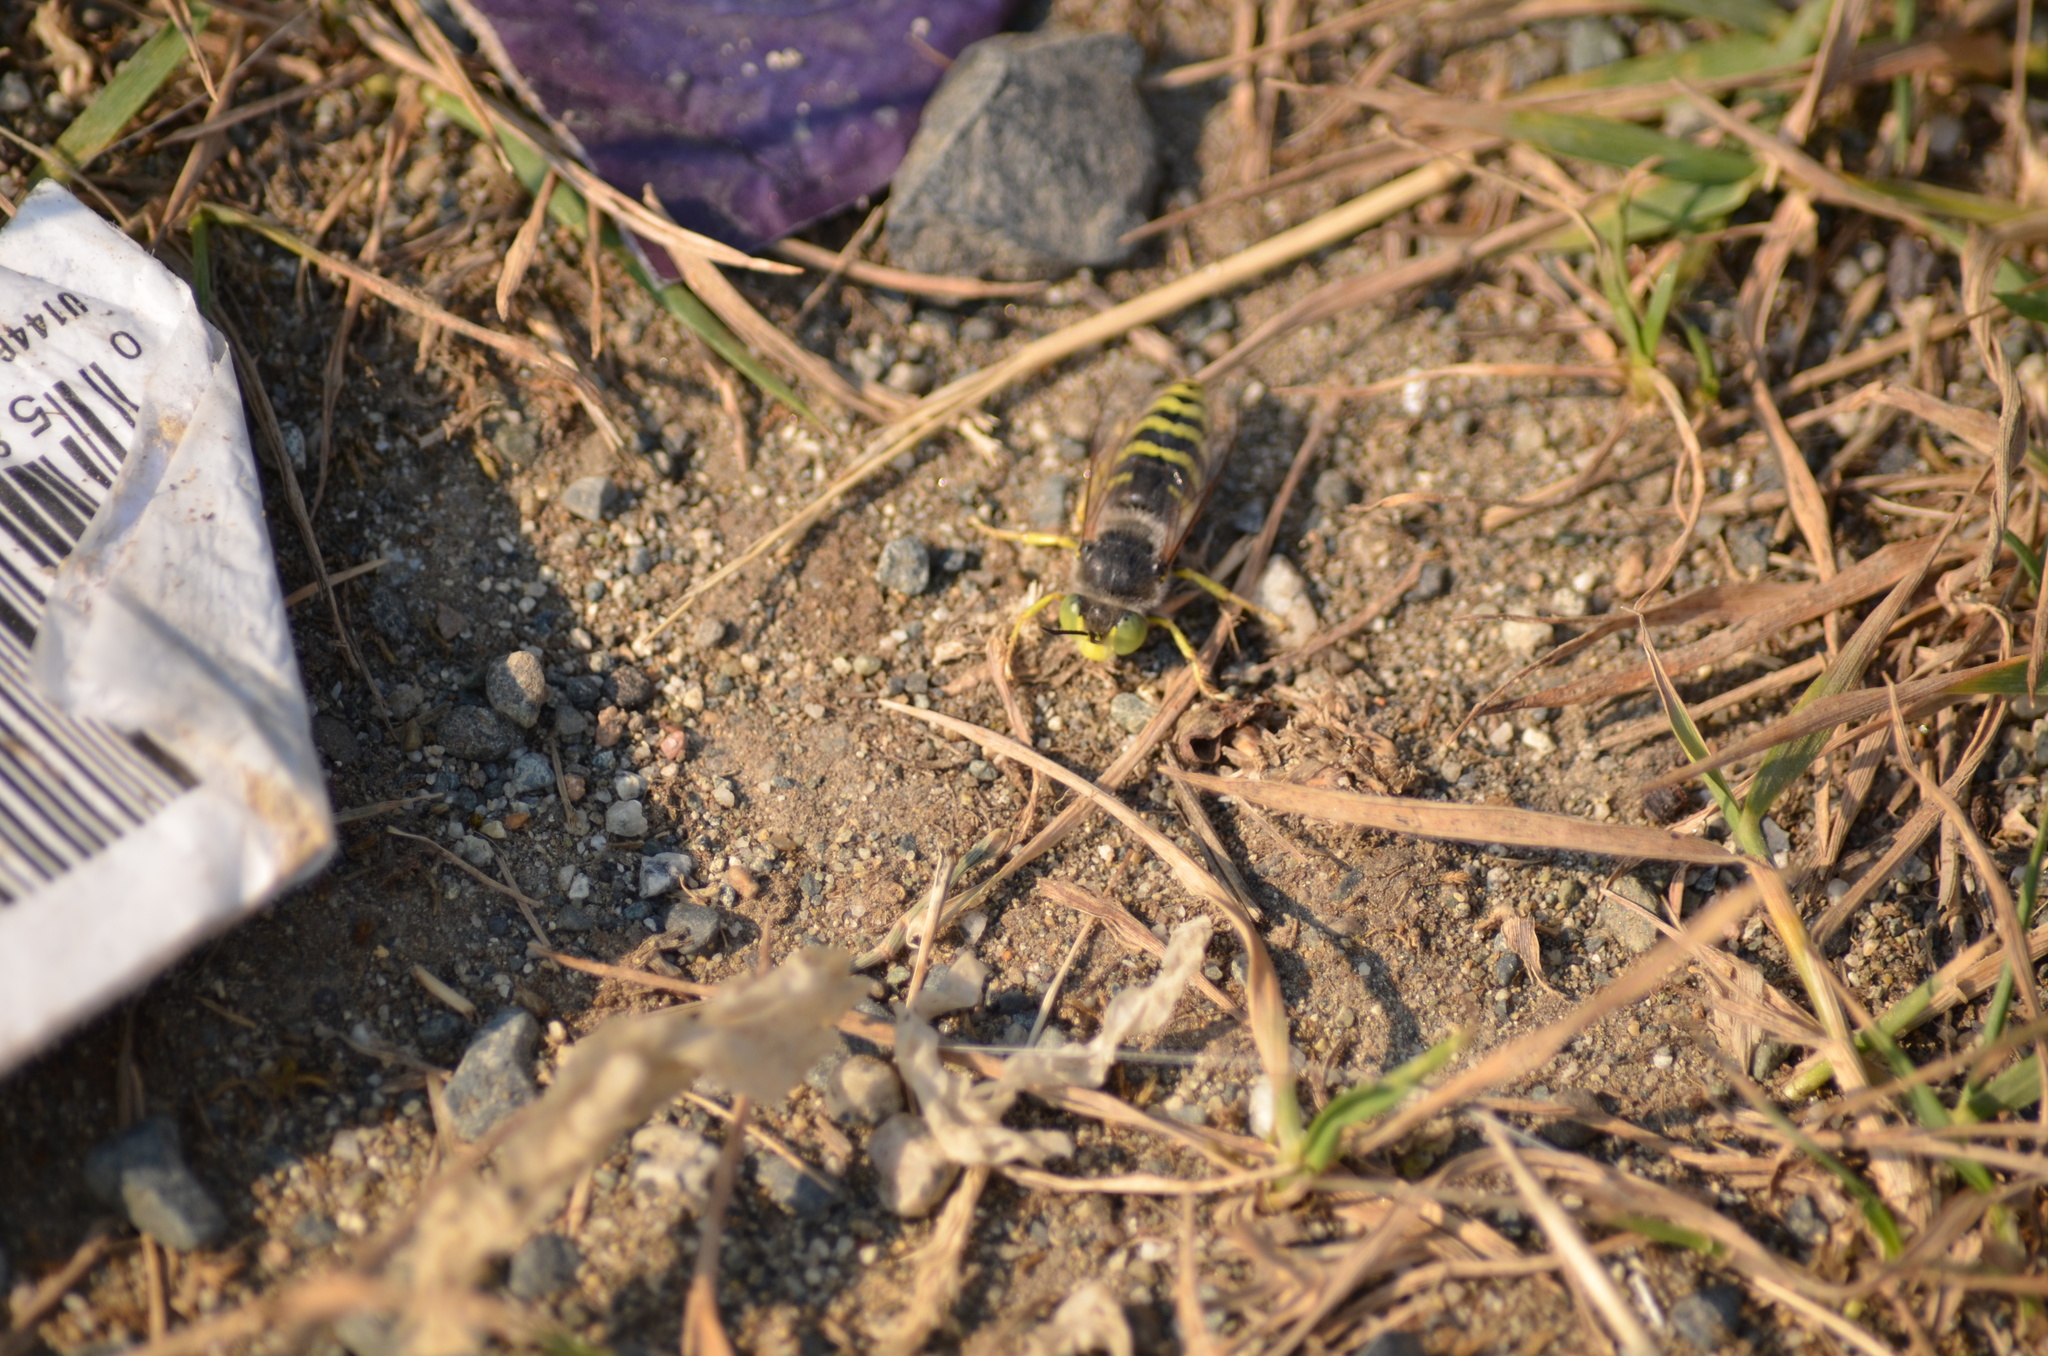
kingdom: Animalia
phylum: Arthropoda
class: Insecta
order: Hymenoptera
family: Crabronidae
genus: Bembix
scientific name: Bembix americana
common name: American sand wasp
